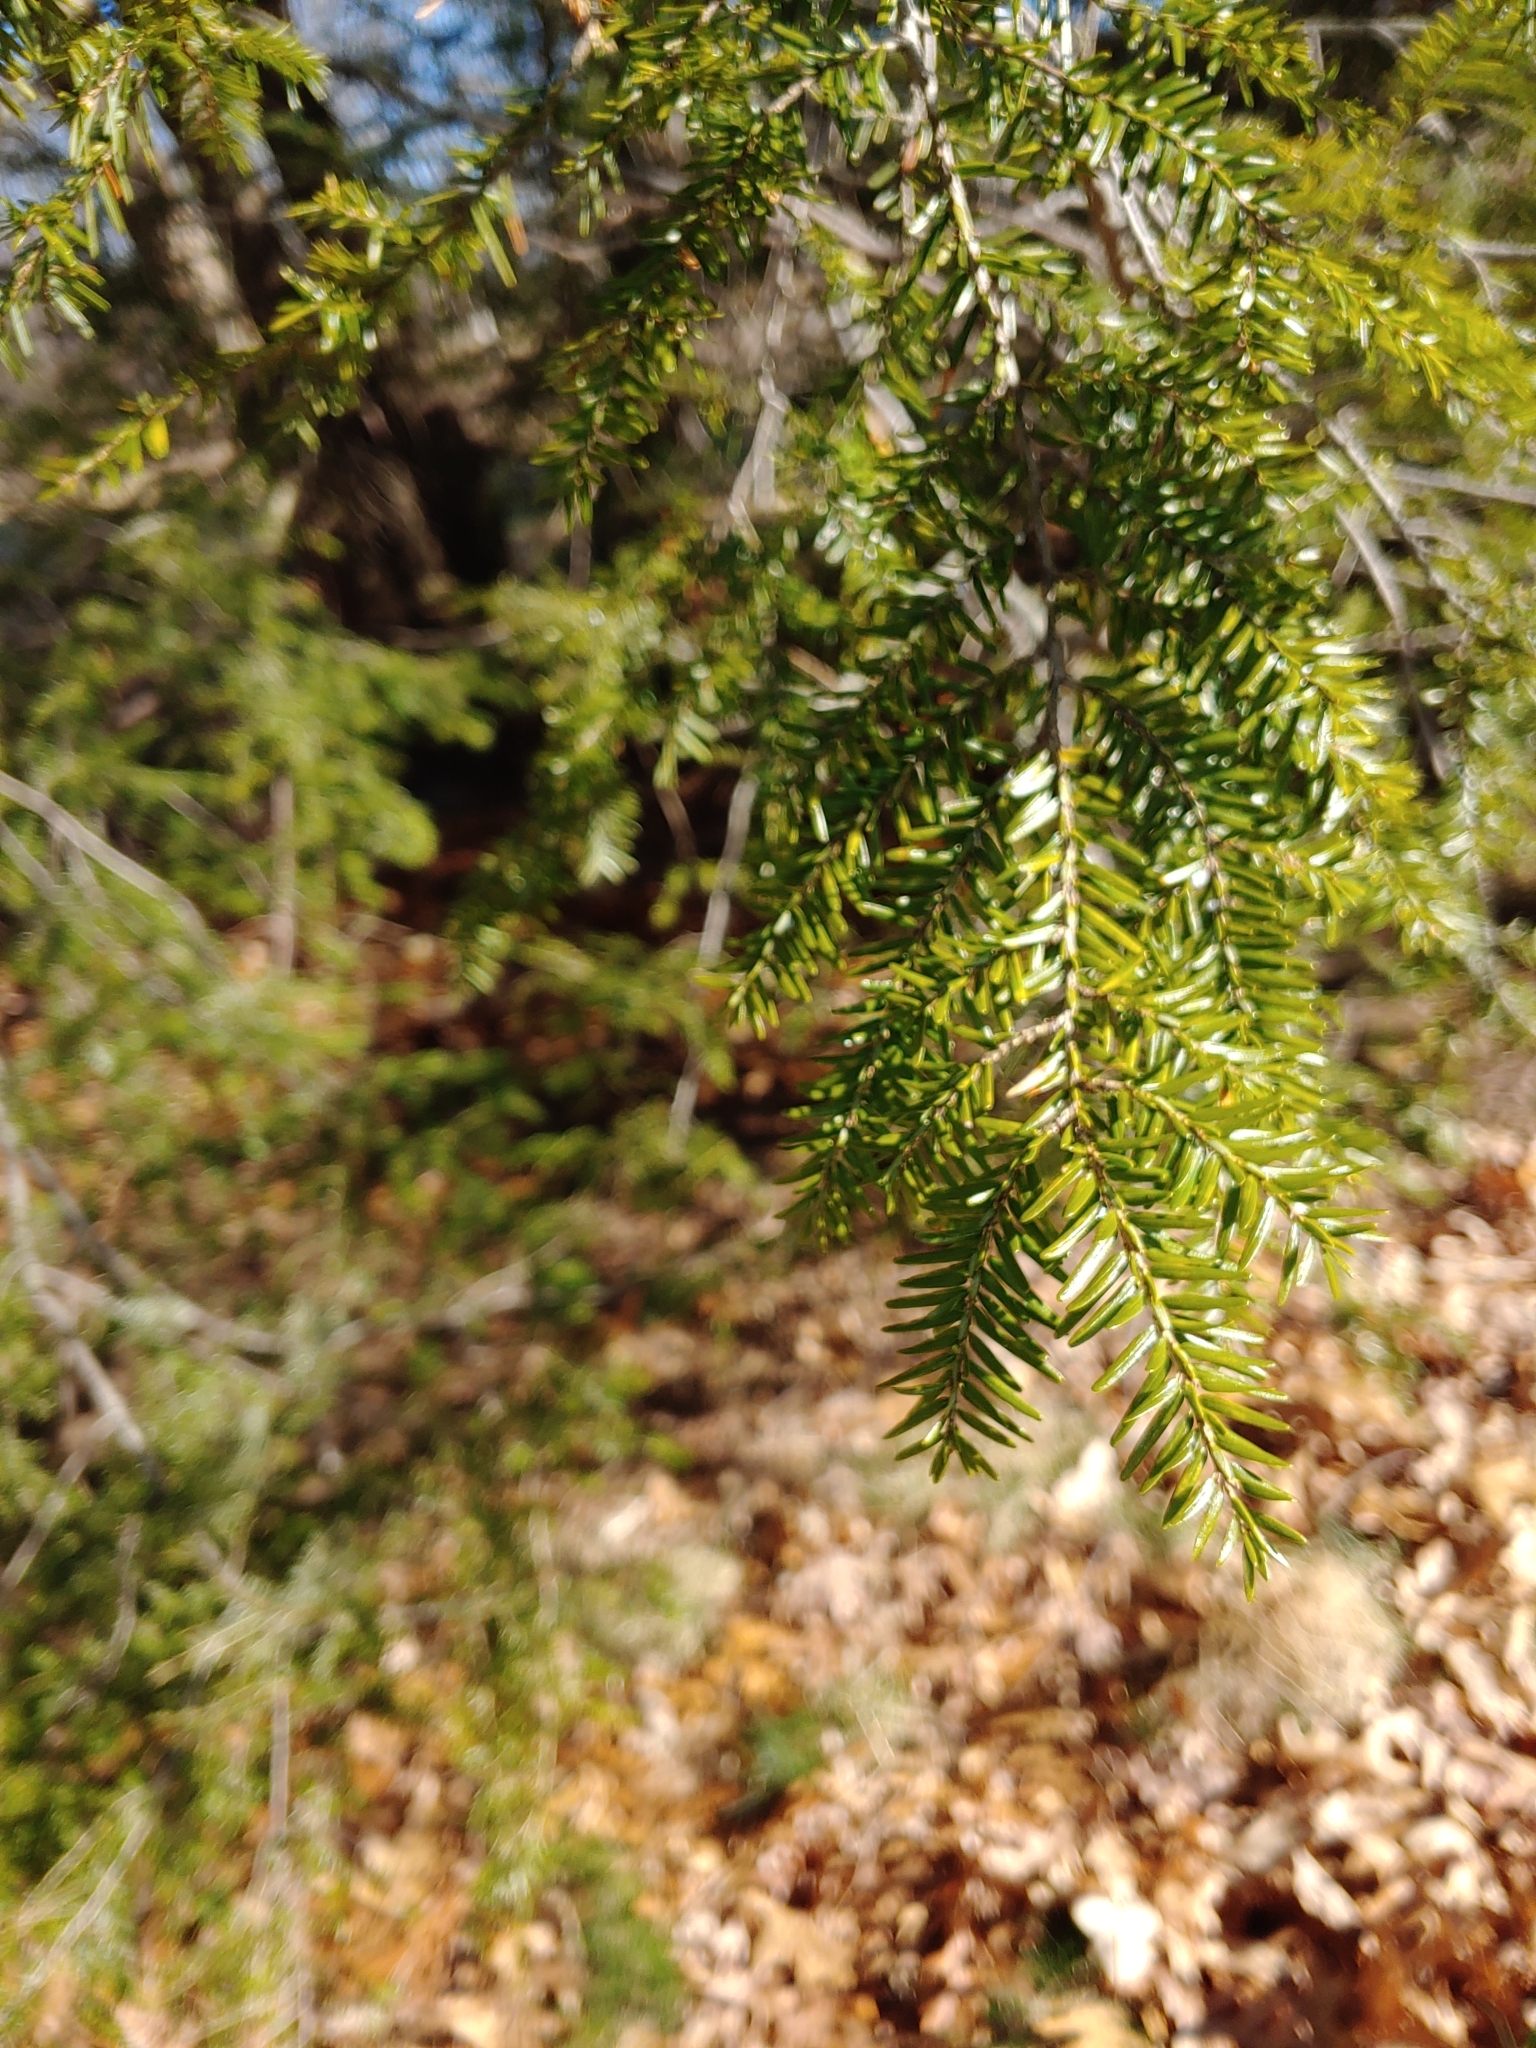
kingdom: Plantae
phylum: Tracheophyta
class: Pinopsida
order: Pinales
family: Pinaceae
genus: Tsuga
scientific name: Tsuga canadensis
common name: Eastern hemlock
